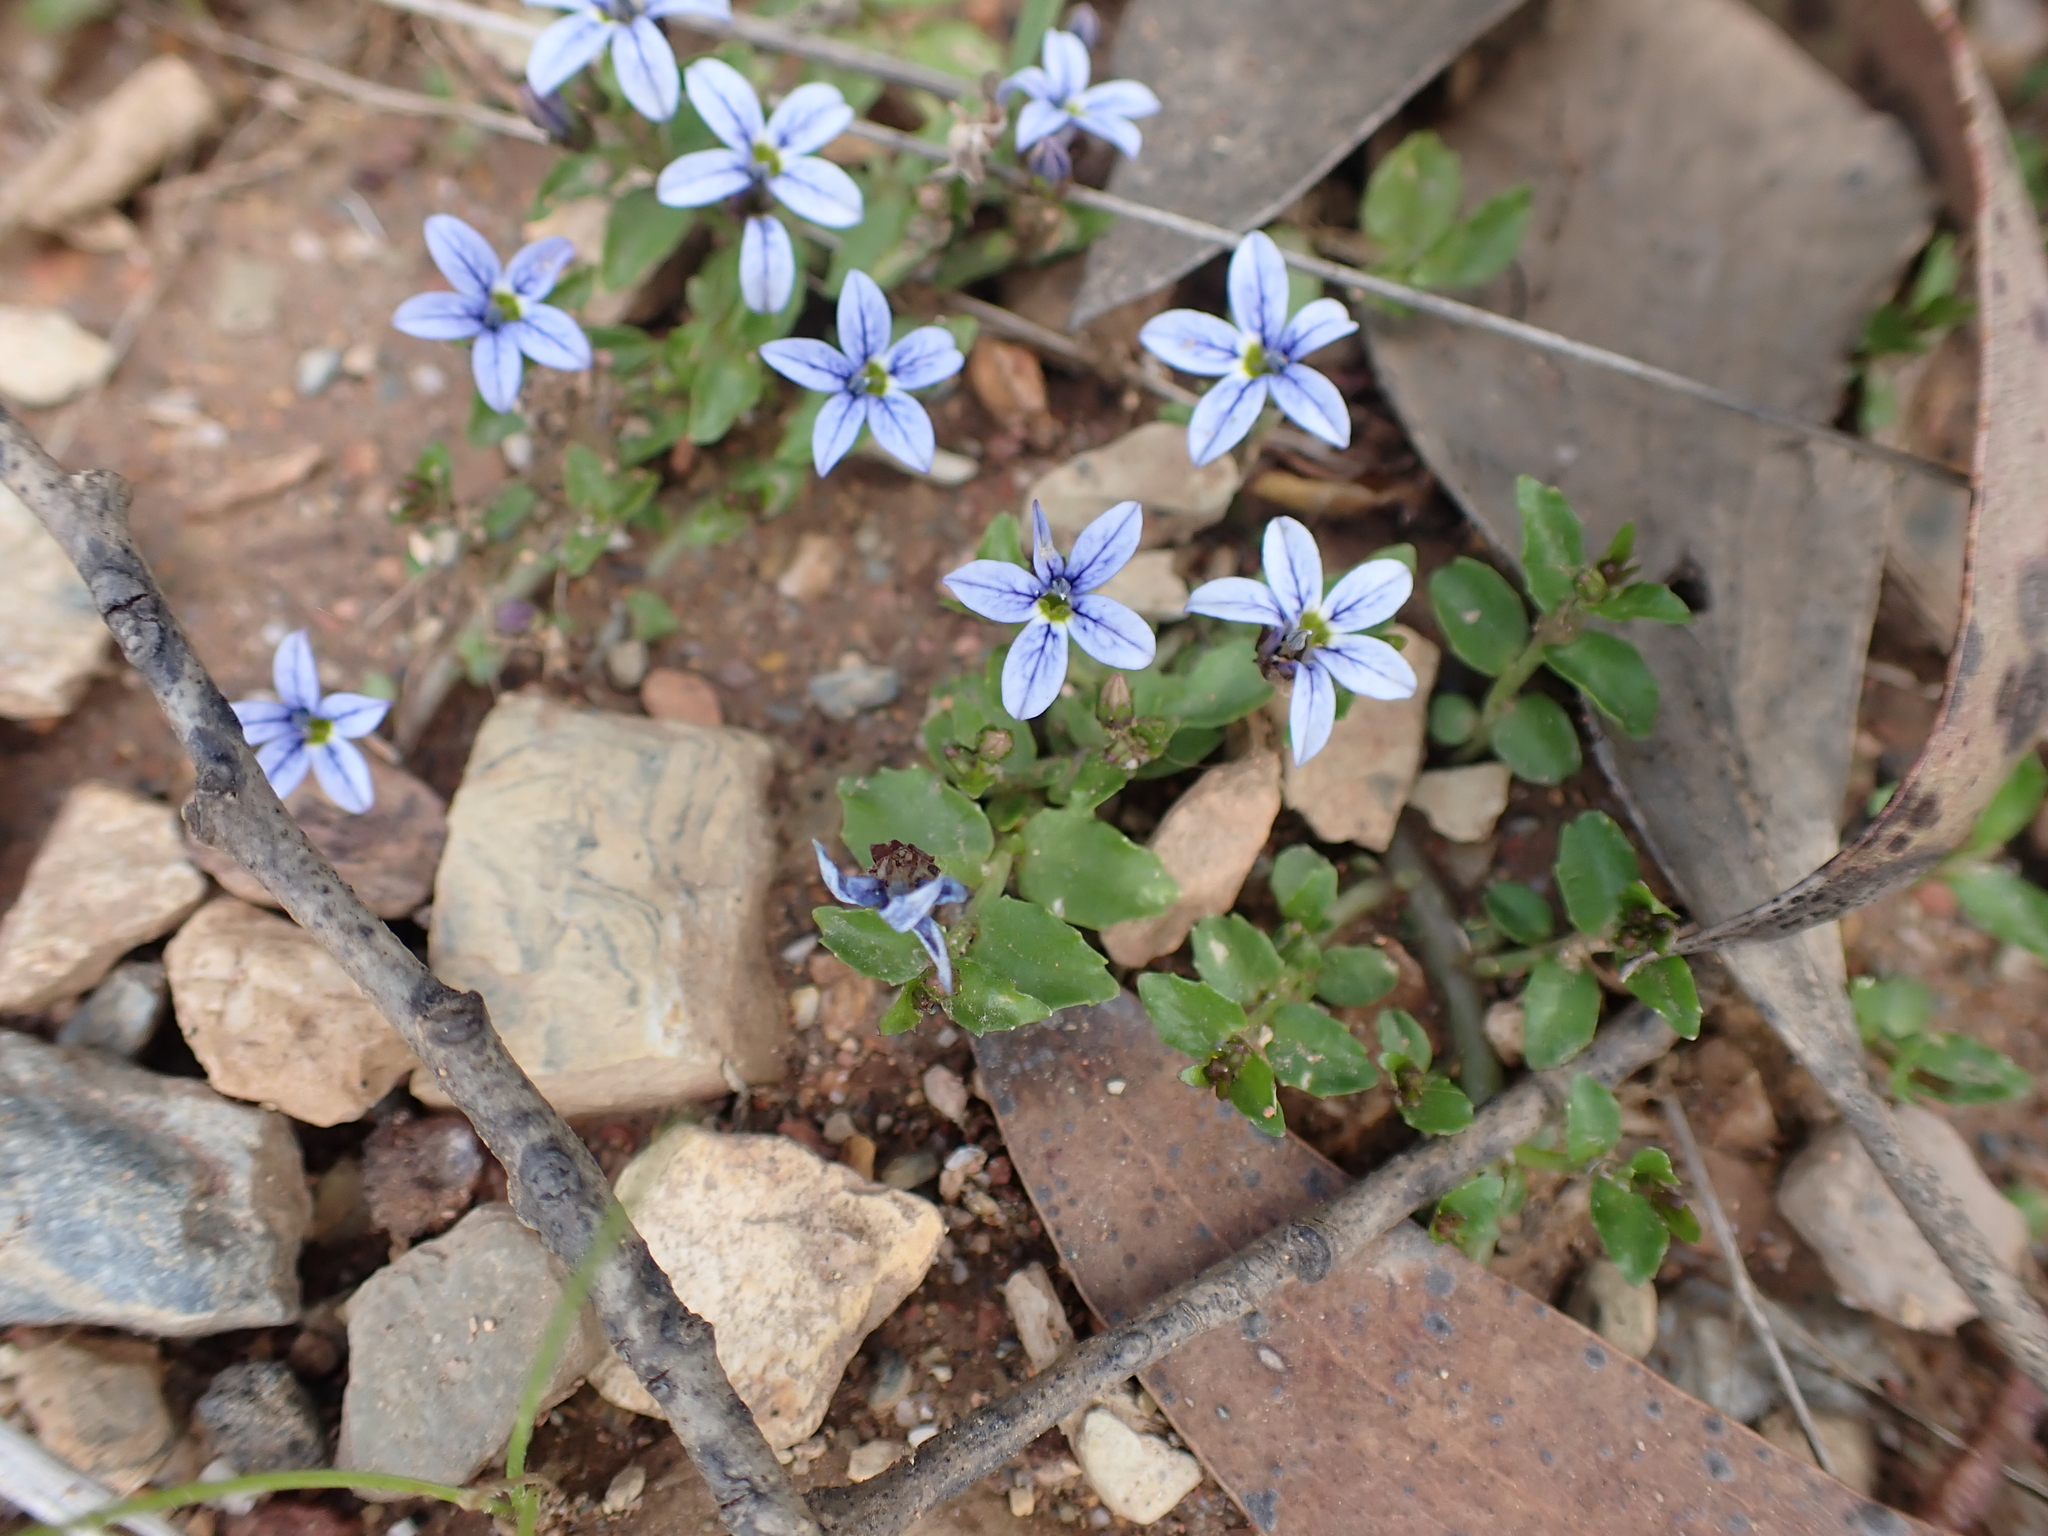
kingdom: Plantae
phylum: Tracheophyta
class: Magnoliopsida
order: Asterales
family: Campanulaceae
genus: Lobelia
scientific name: Lobelia pedunculata
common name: Matted pratia
